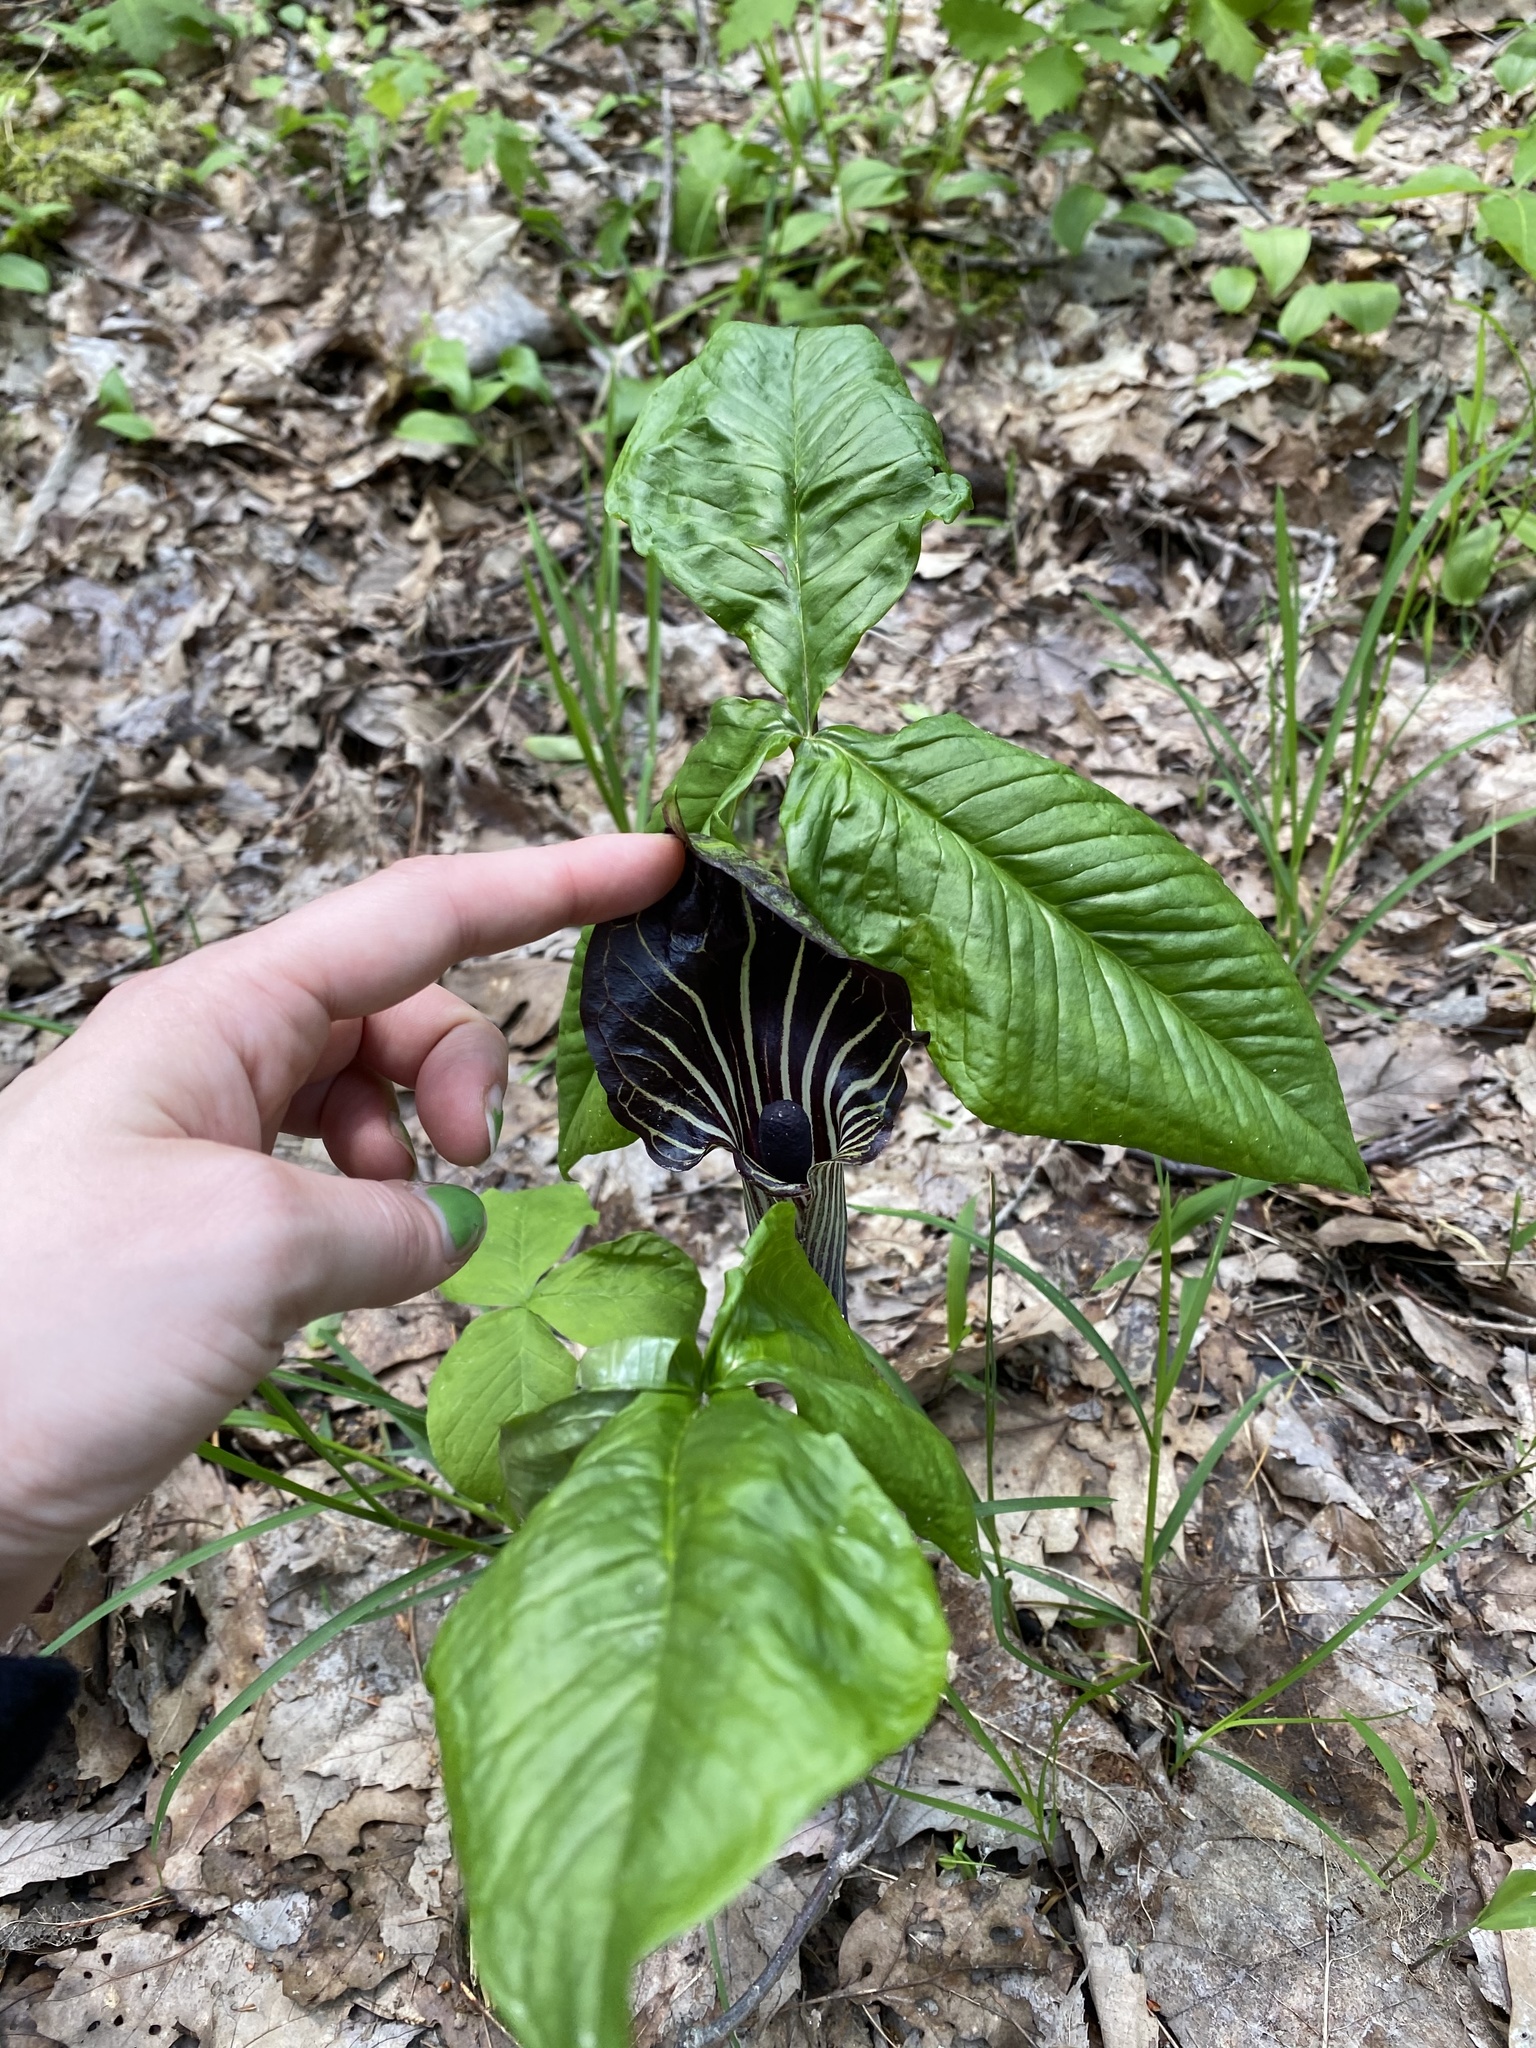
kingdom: Plantae
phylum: Tracheophyta
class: Liliopsida
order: Alismatales
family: Araceae
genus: Arisaema
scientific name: Arisaema triphyllum
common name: Jack-in-the-pulpit
